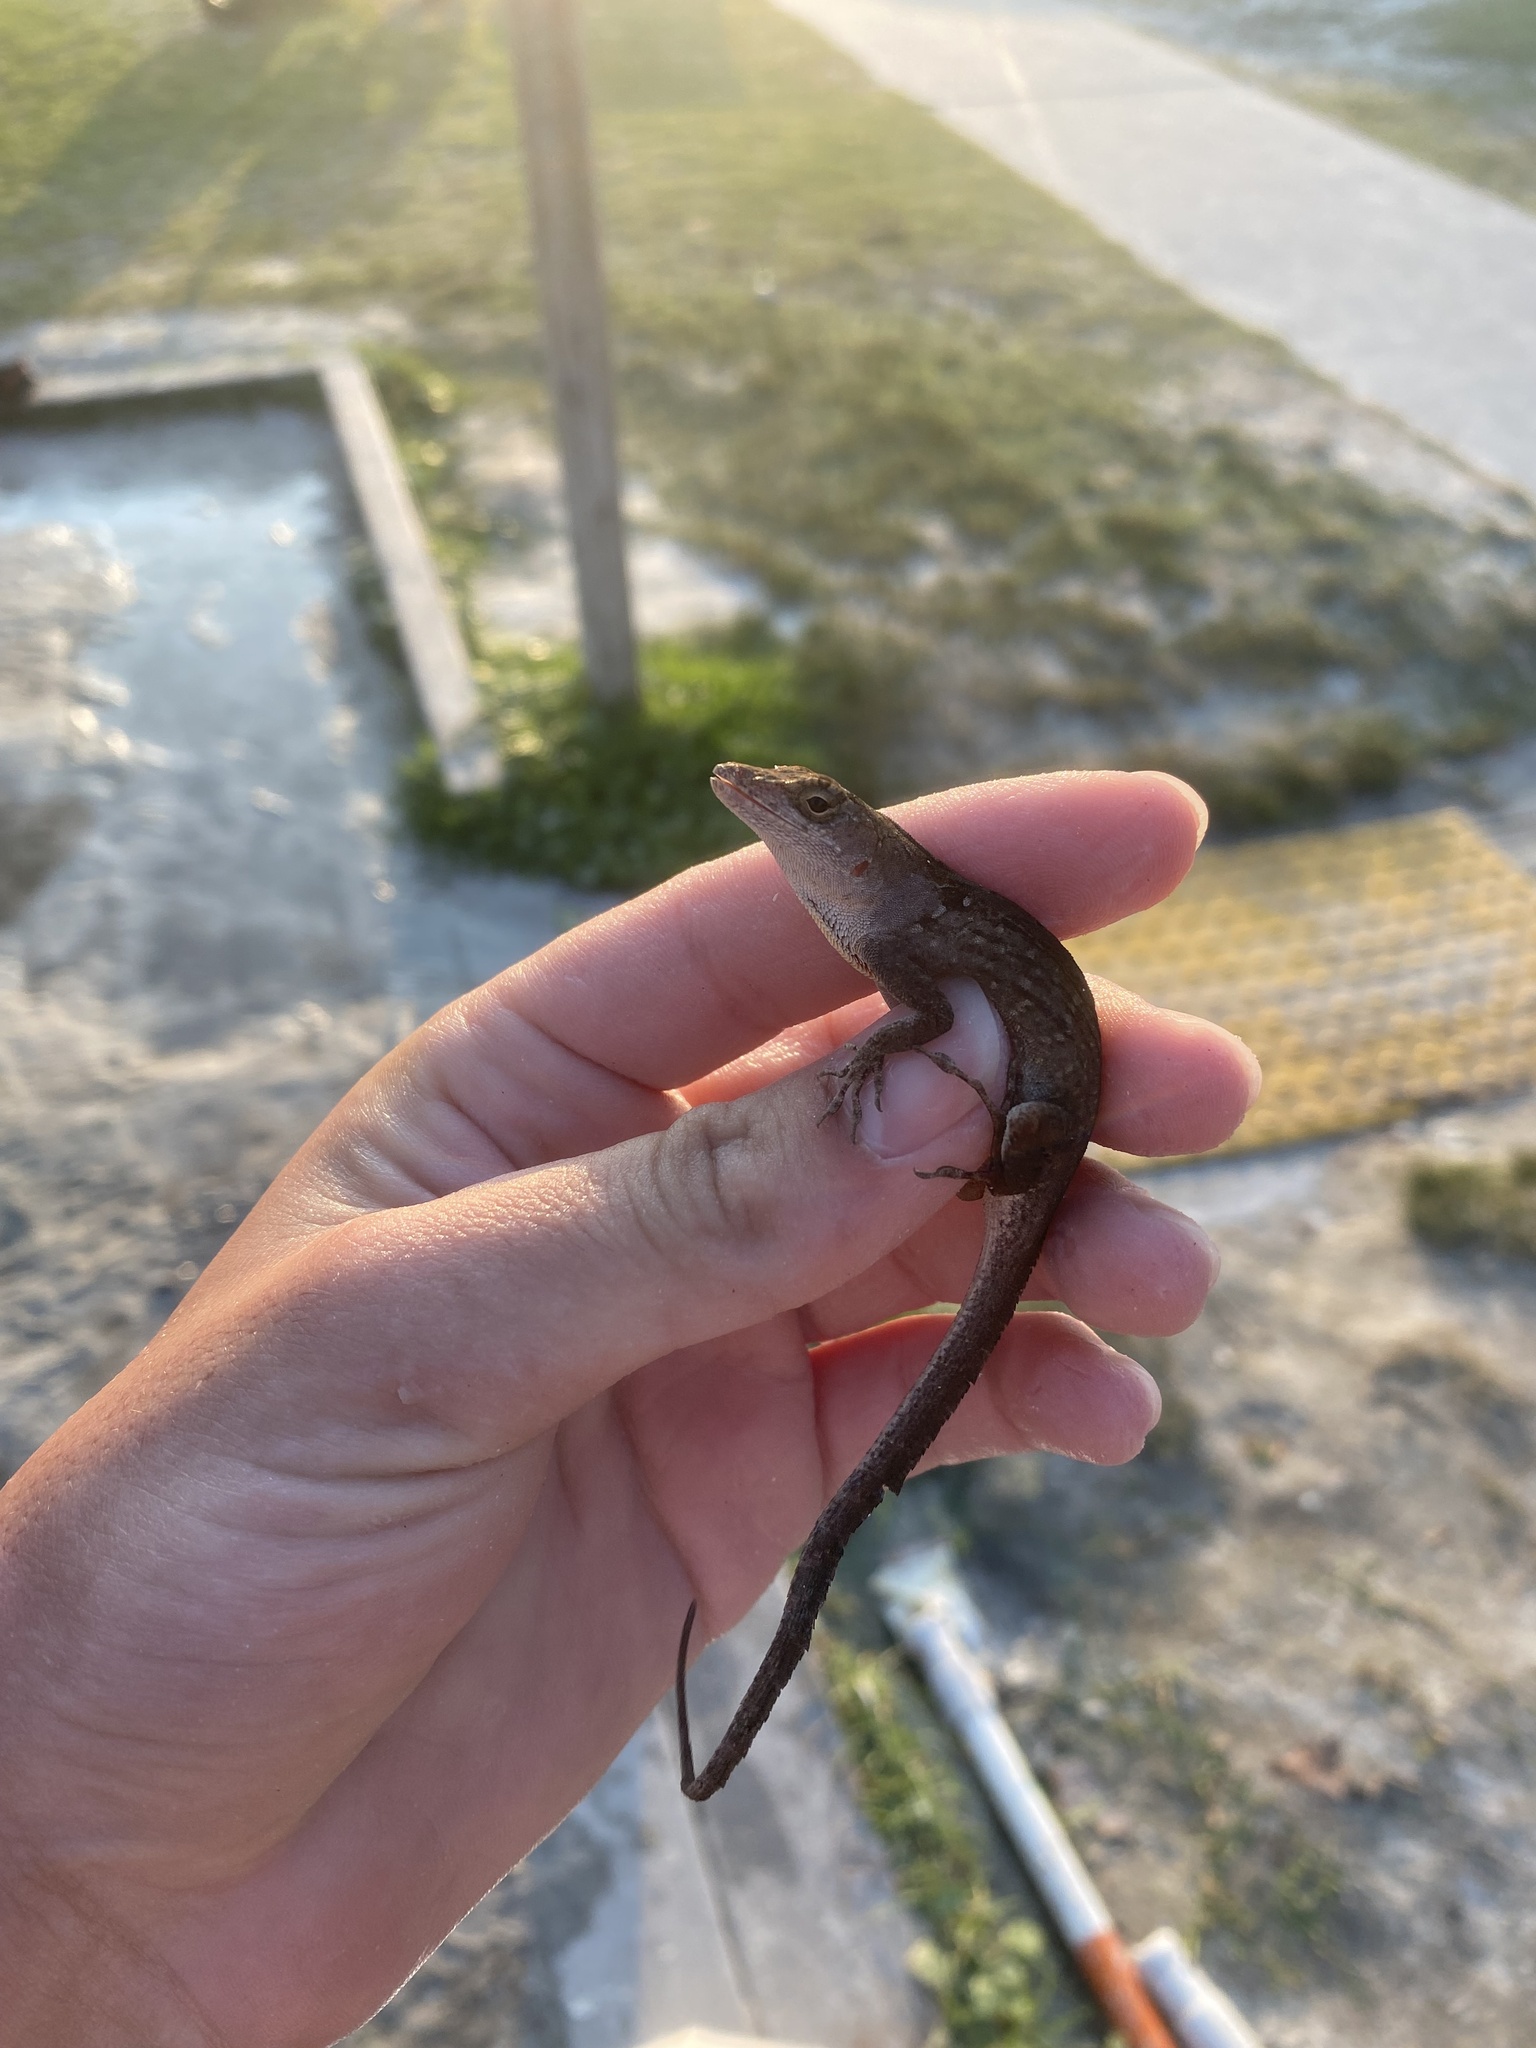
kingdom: Animalia
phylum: Chordata
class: Squamata
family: Dactyloidae
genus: Anolis
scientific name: Anolis sagrei
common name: Brown anole
